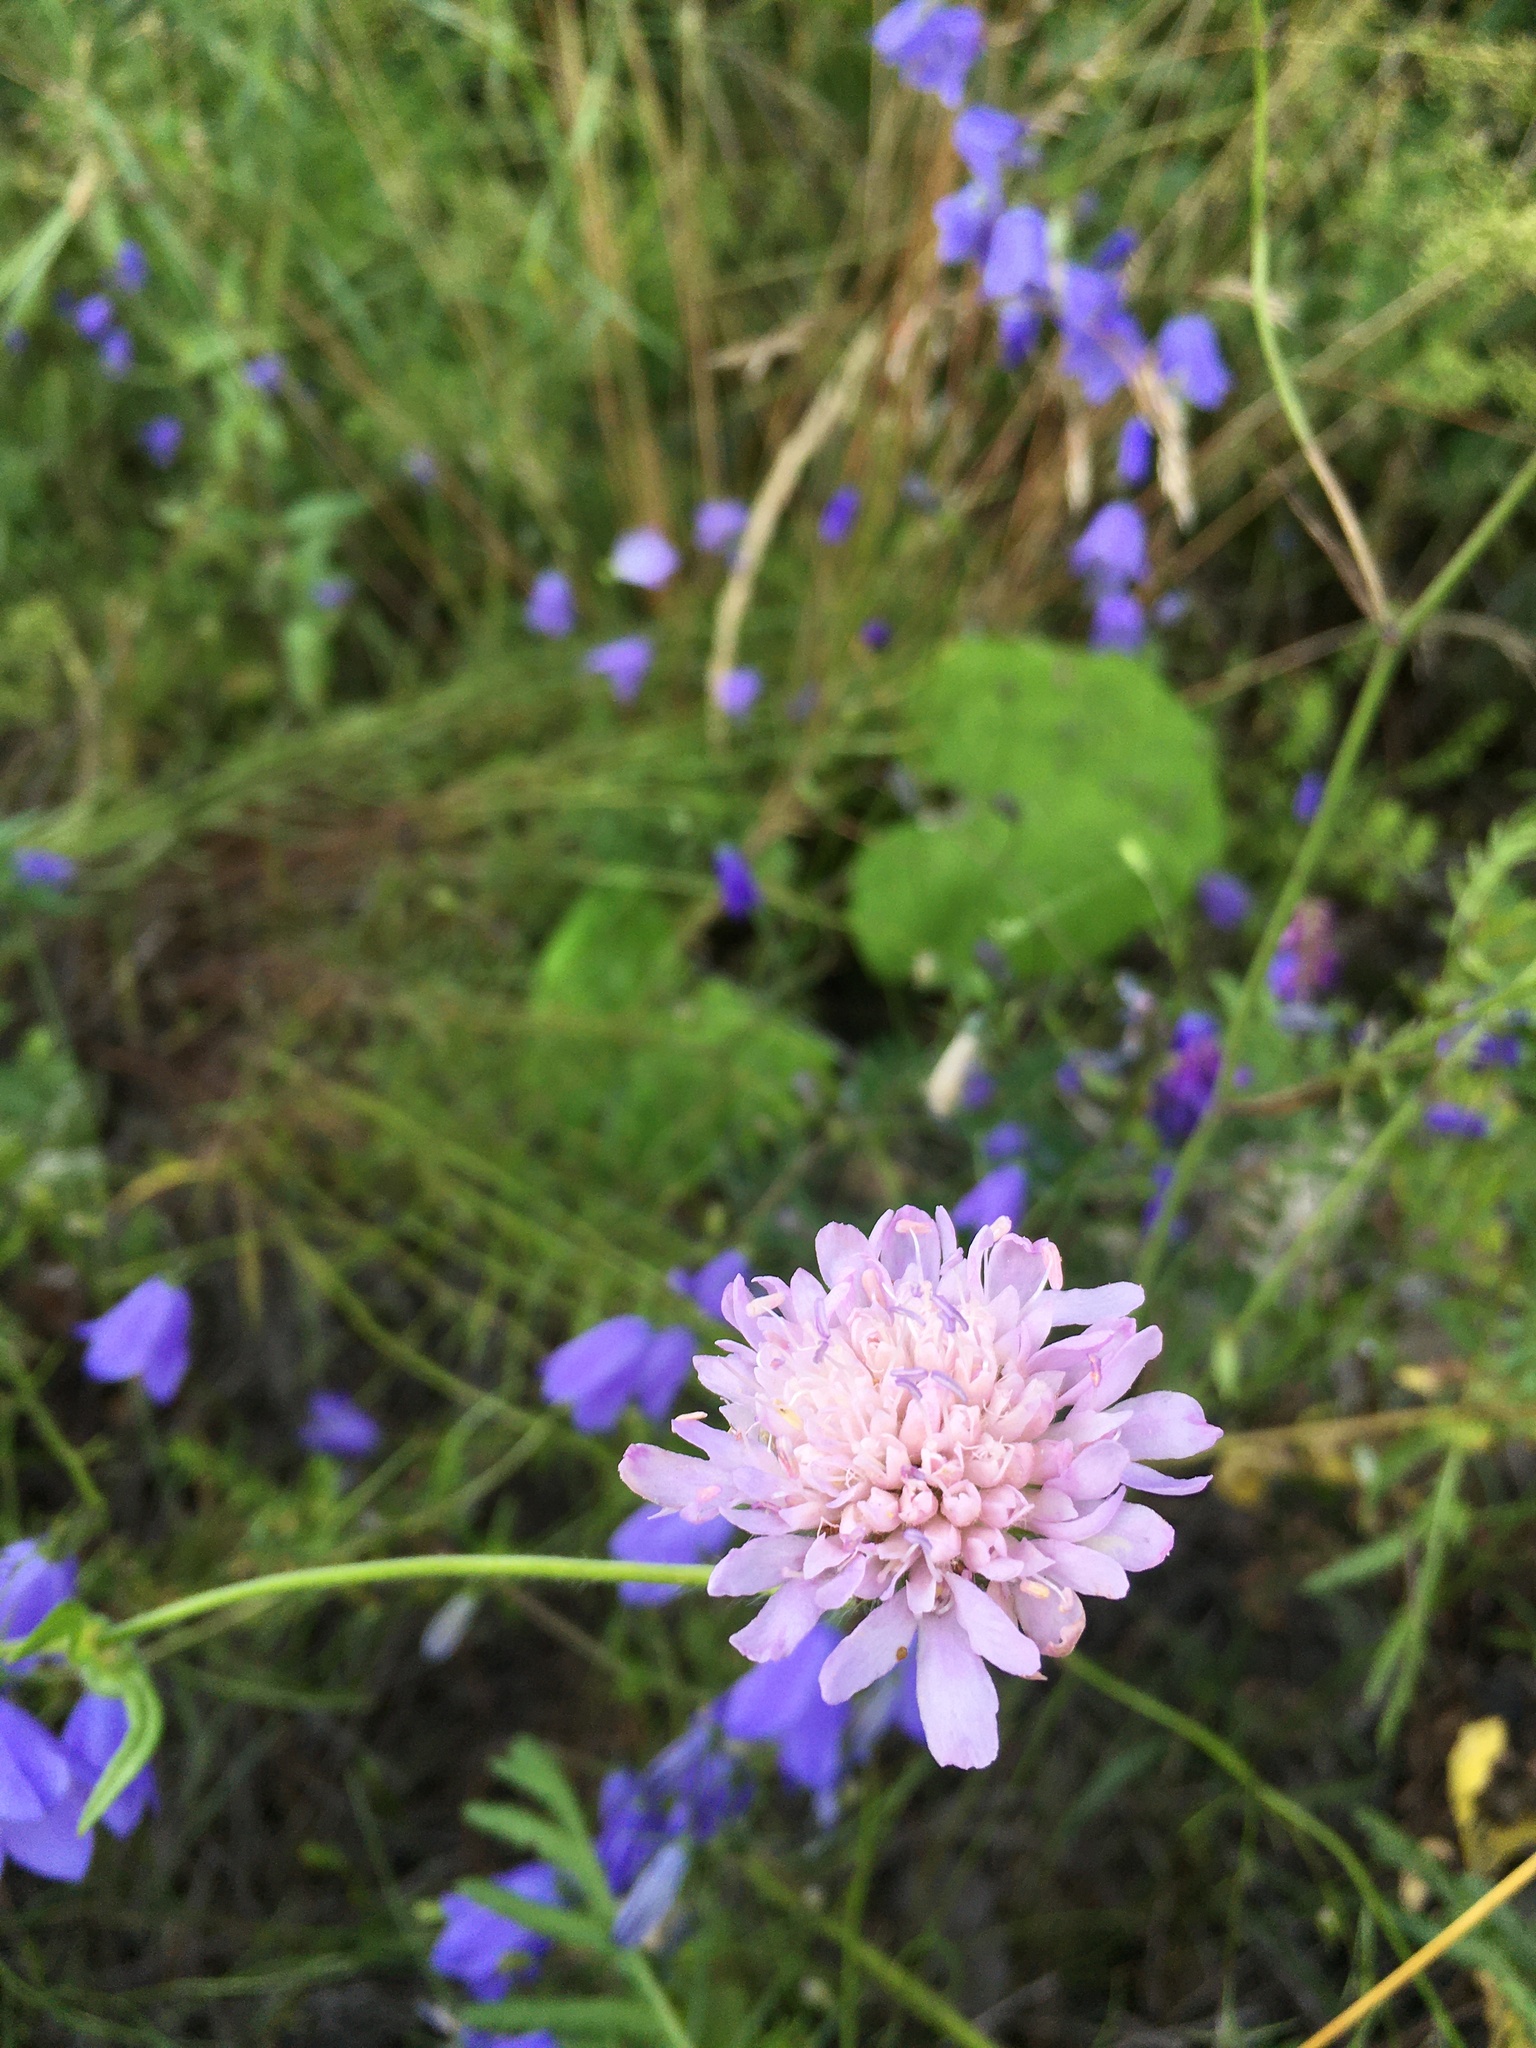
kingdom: Plantae
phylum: Tracheophyta
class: Magnoliopsida
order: Dipsacales
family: Caprifoliaceae
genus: Knautia
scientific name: Knautia arvensis
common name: Field scabiosa
